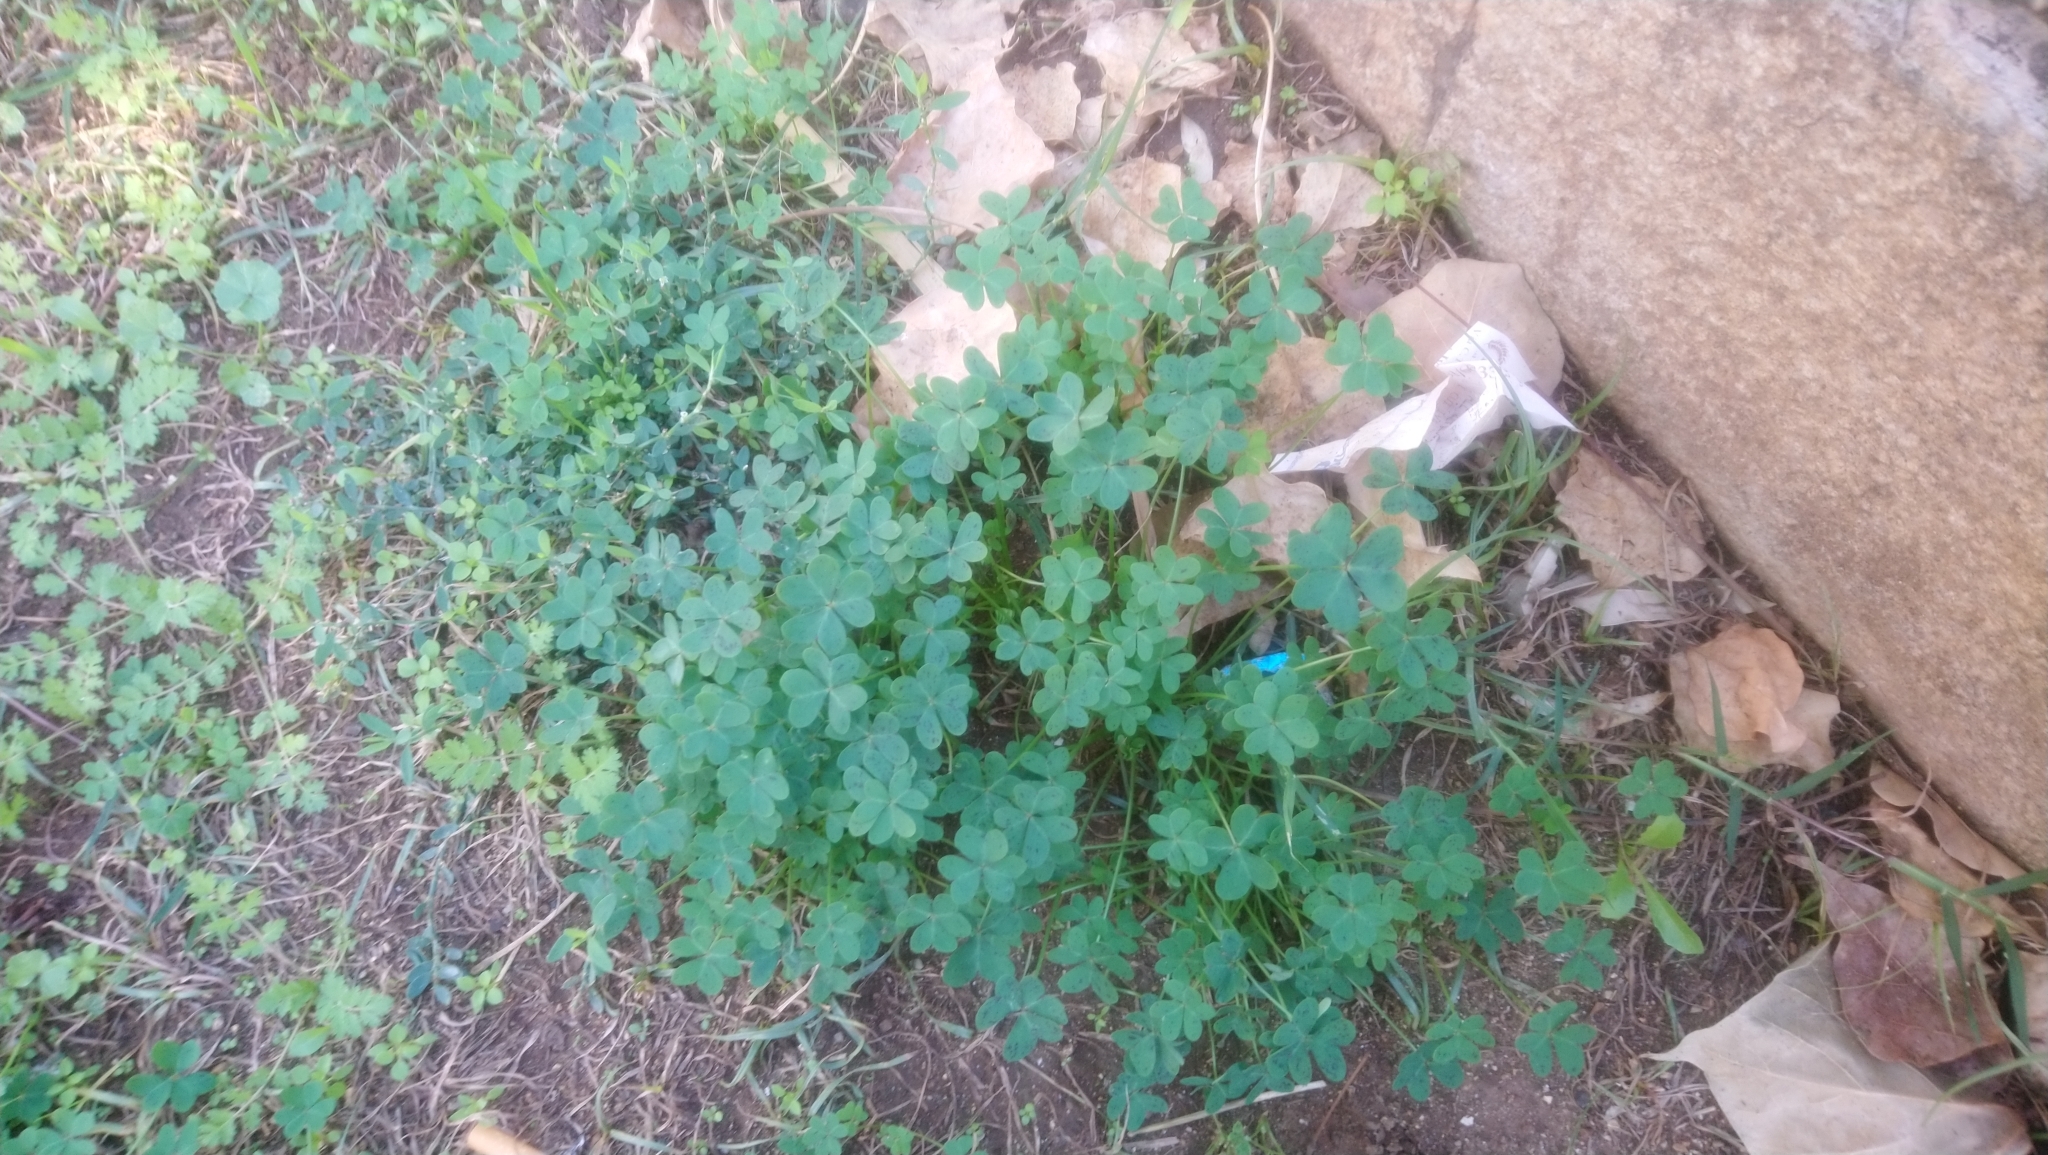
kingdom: Plantae
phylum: Tracheophyta
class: Magnoliopsida
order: Oxalidales
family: Oxalidaceae
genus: Oxalis
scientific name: Oxalis pes-caprae
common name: Bermuda-buttercup
